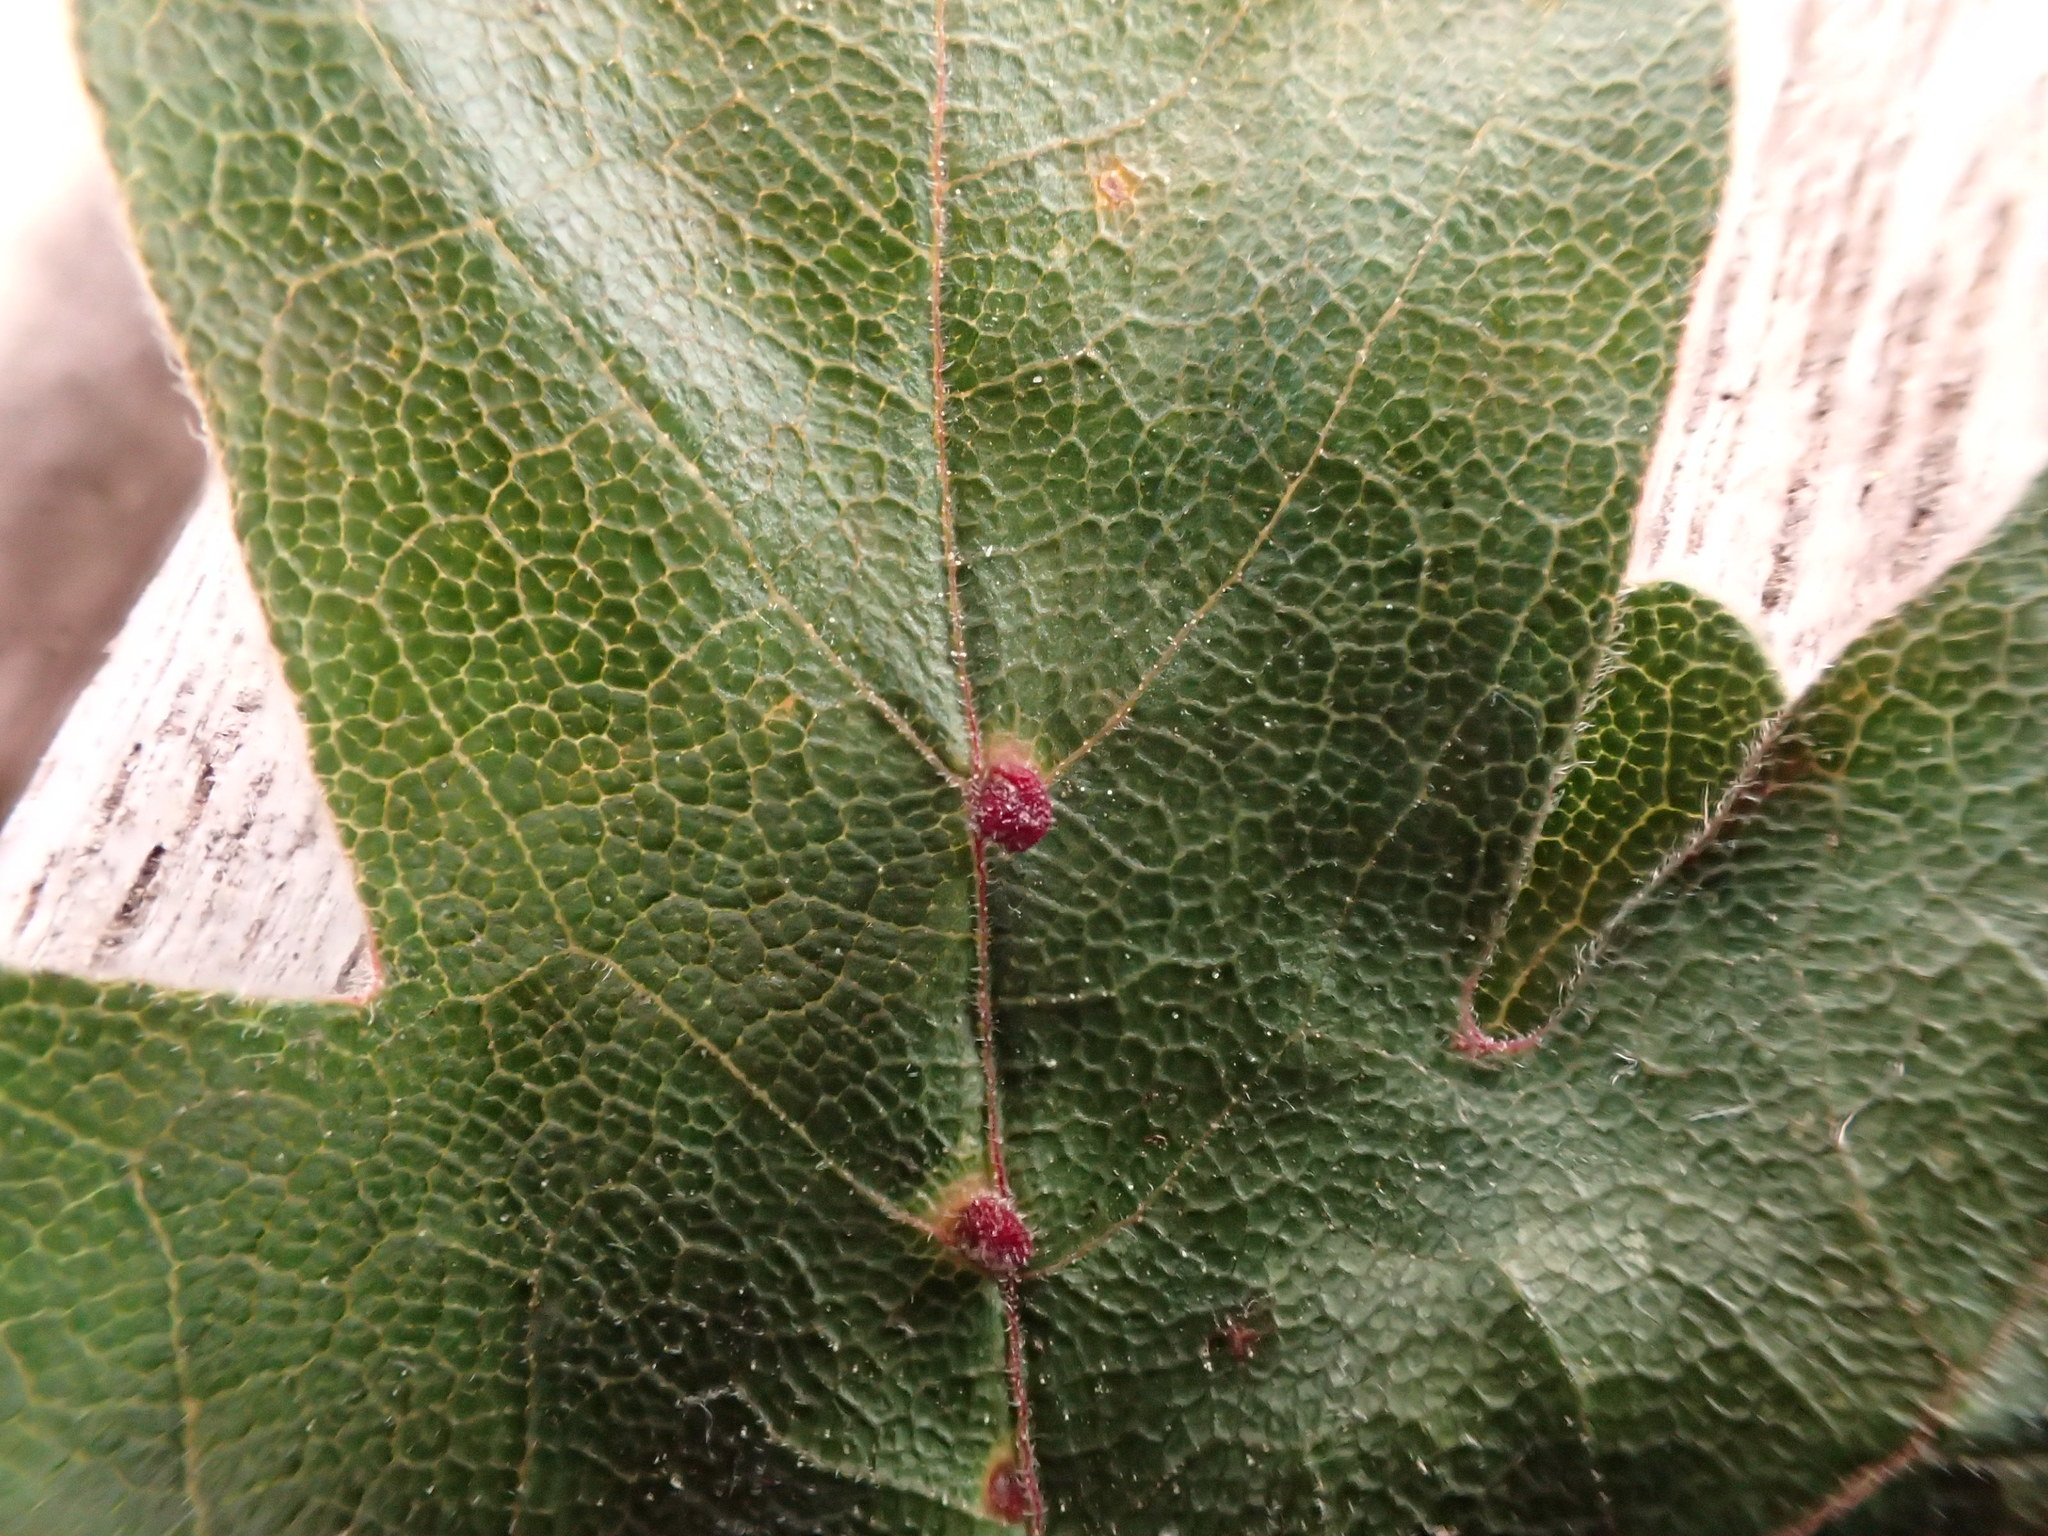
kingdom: Animalia
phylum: Arthropoda
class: Arachnida
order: Trombidiformes
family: Eriophyidae
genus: Aceria
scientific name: Aceria macrochelus
